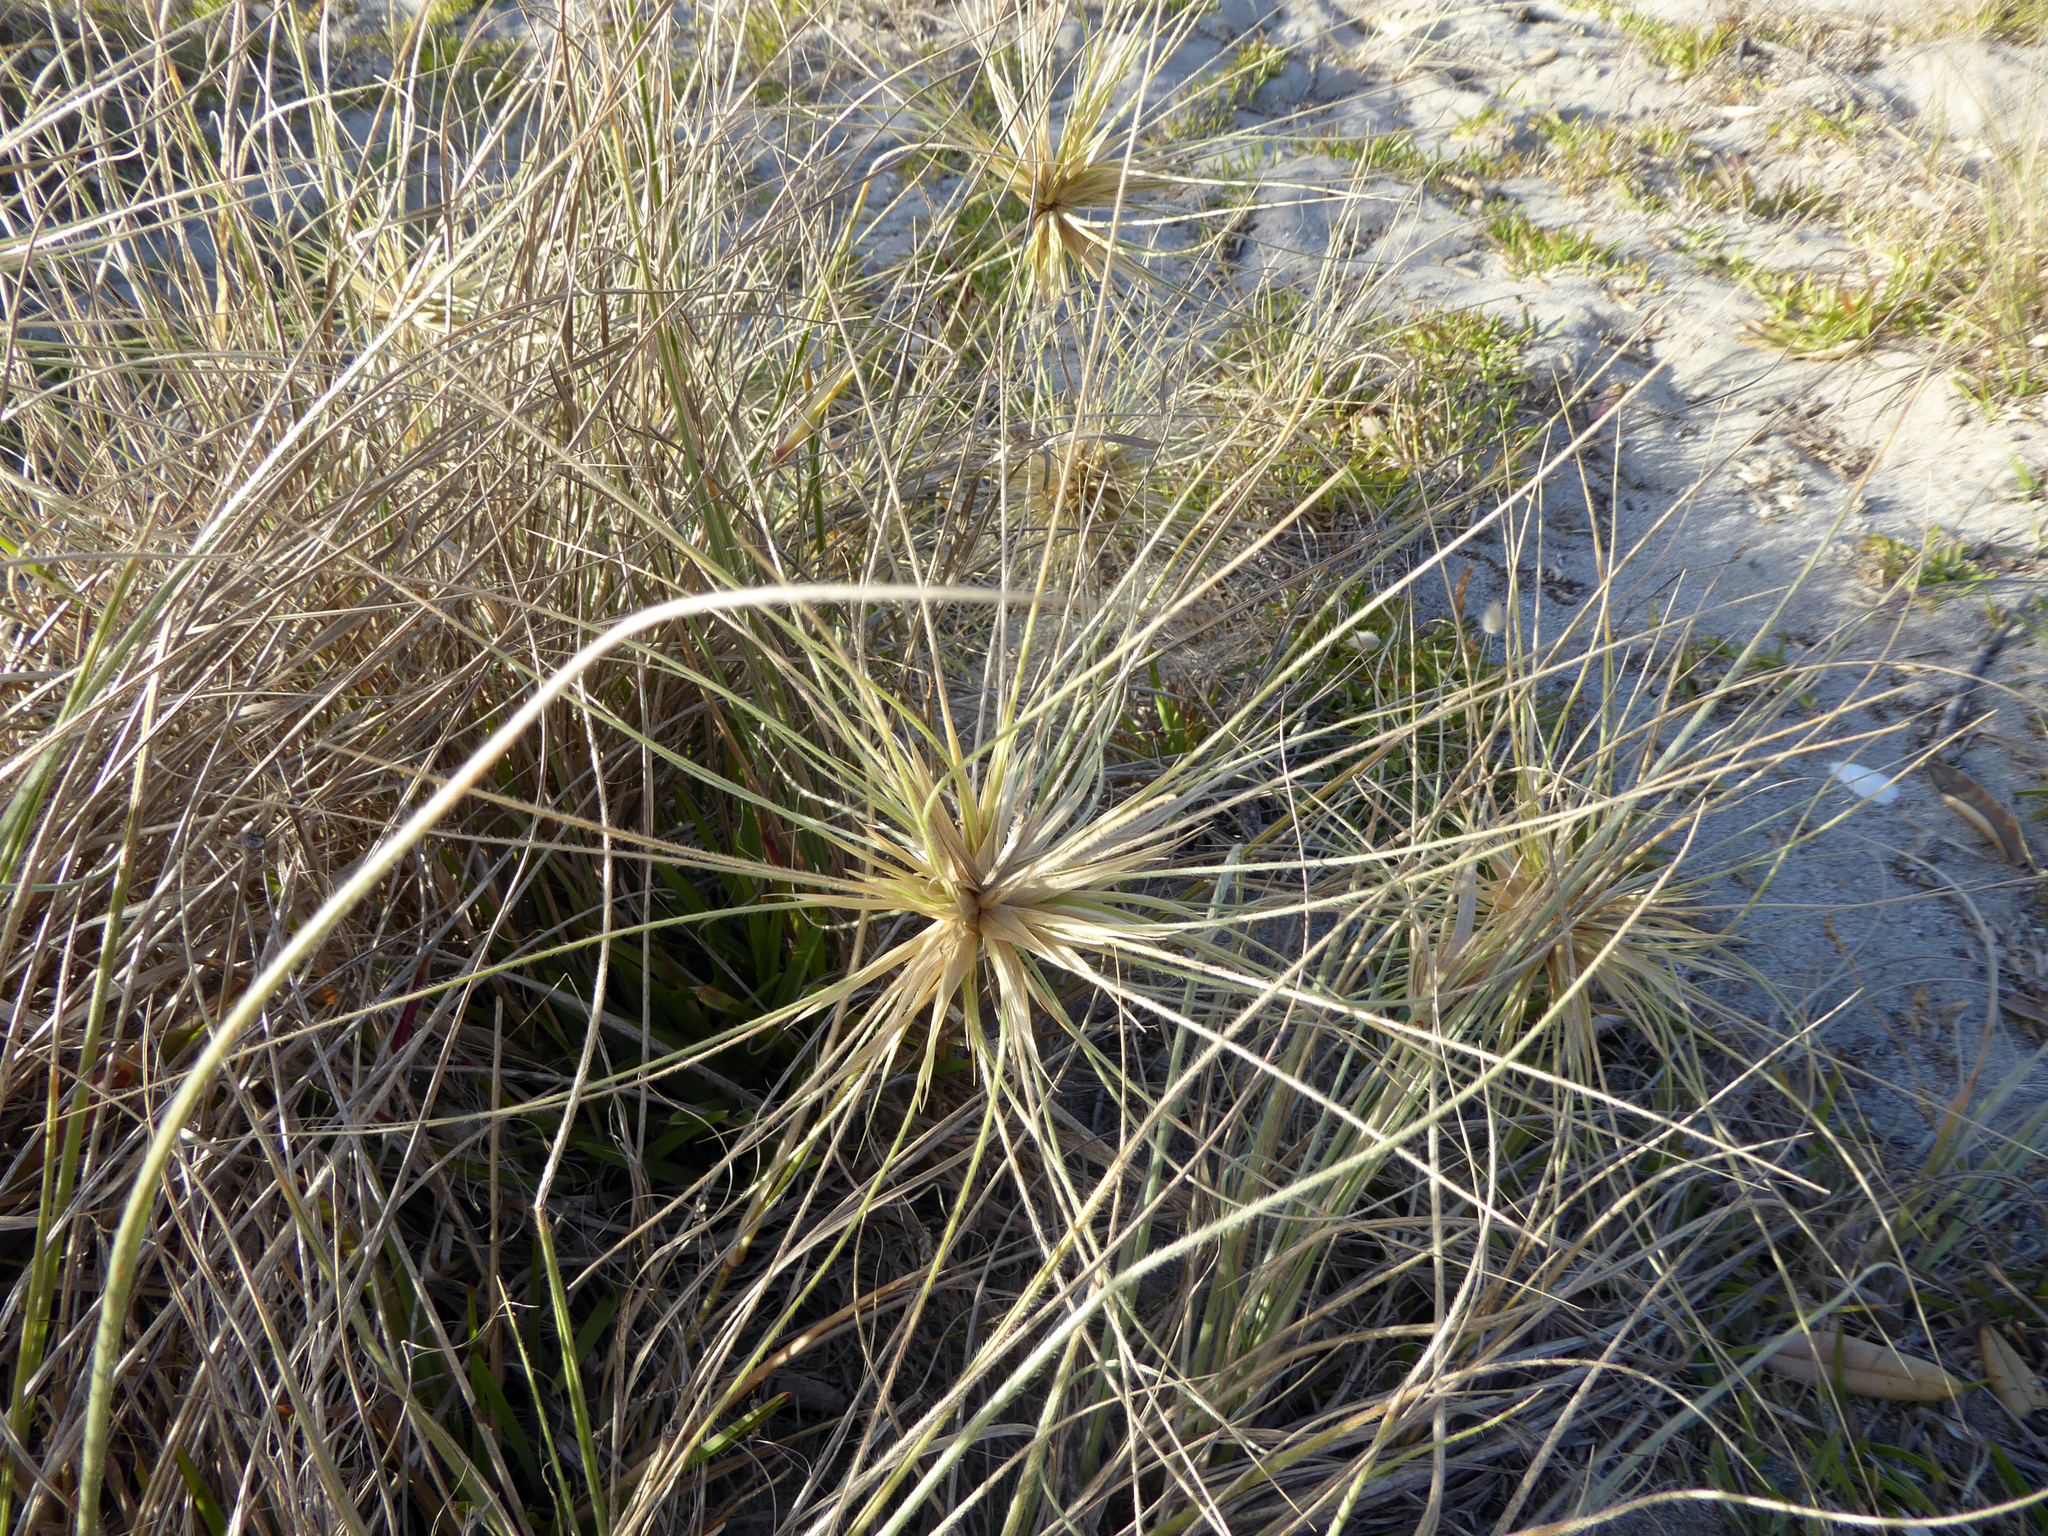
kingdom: Plantae
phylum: Tracheophyta
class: Liliopsida
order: Poales
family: Poaceae
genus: Spinifex
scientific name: Spinifex sericeus
